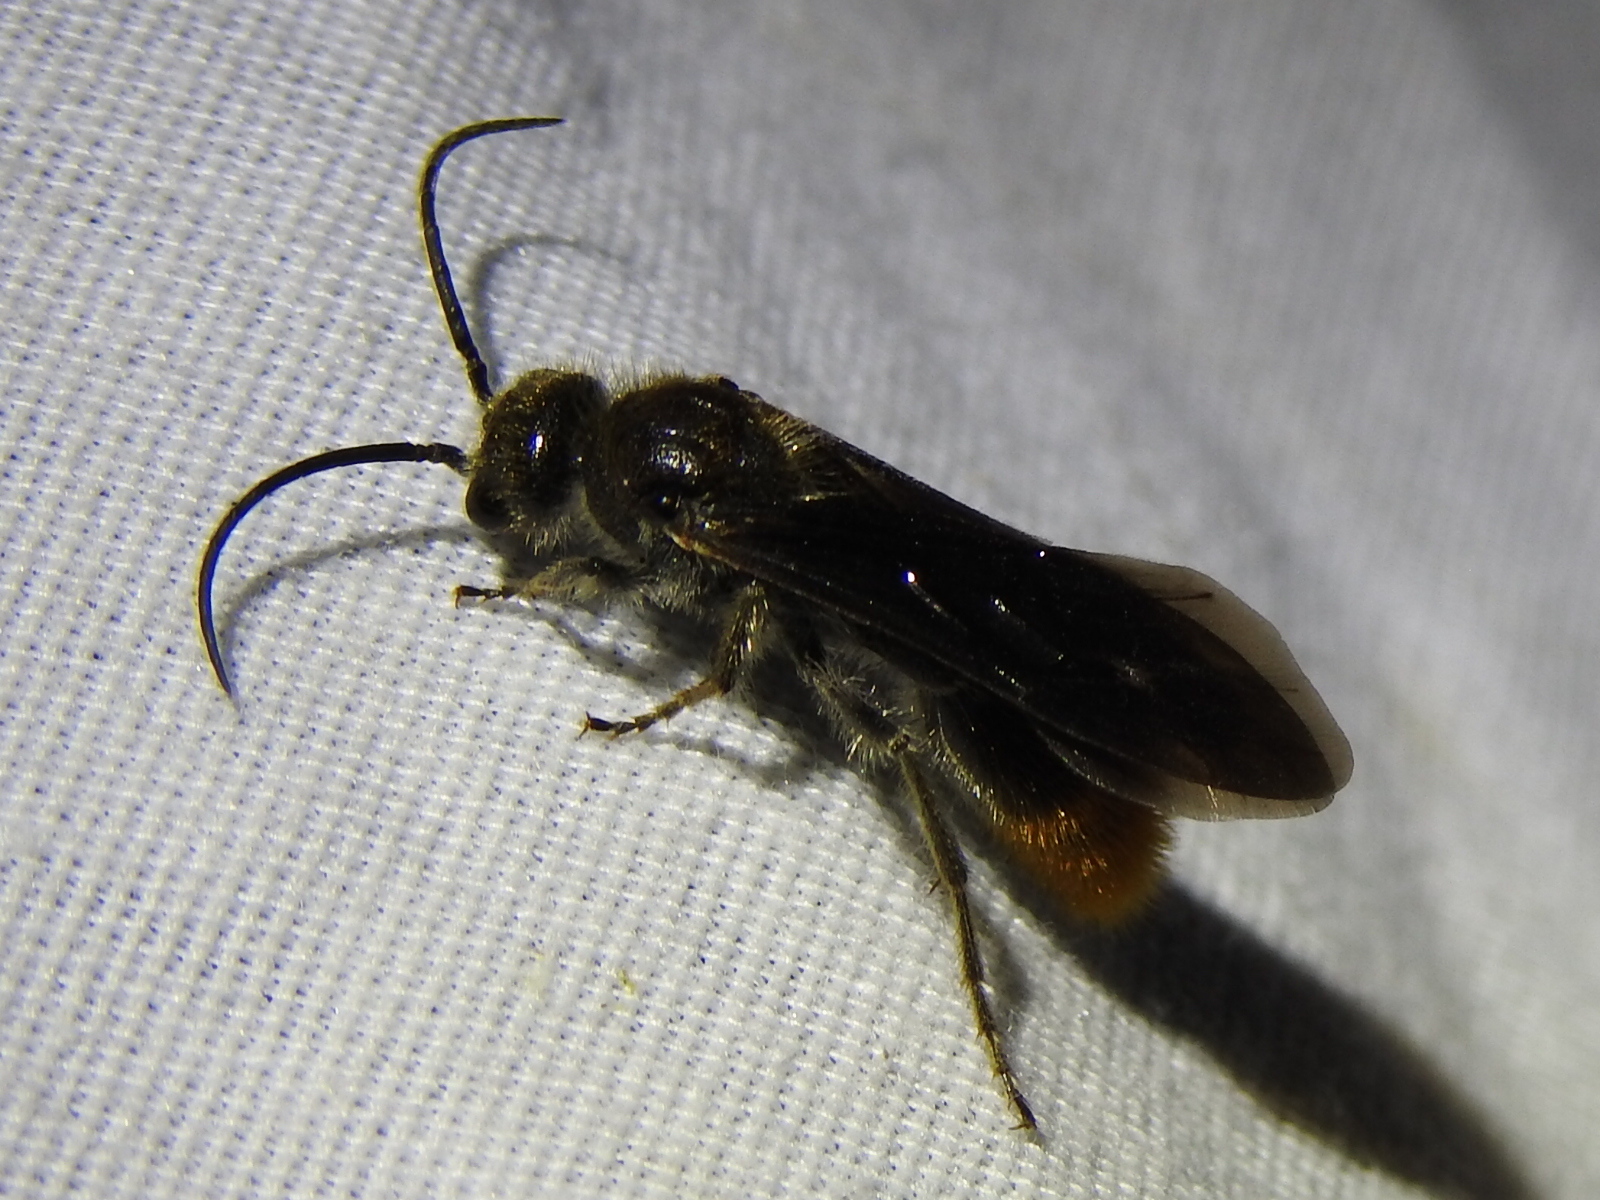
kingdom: Animalia
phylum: Arthropoda
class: Insecta
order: Hymenoptera
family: Mutillidae
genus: Sphaeropthalma
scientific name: Sphaeropthalma marpesia
